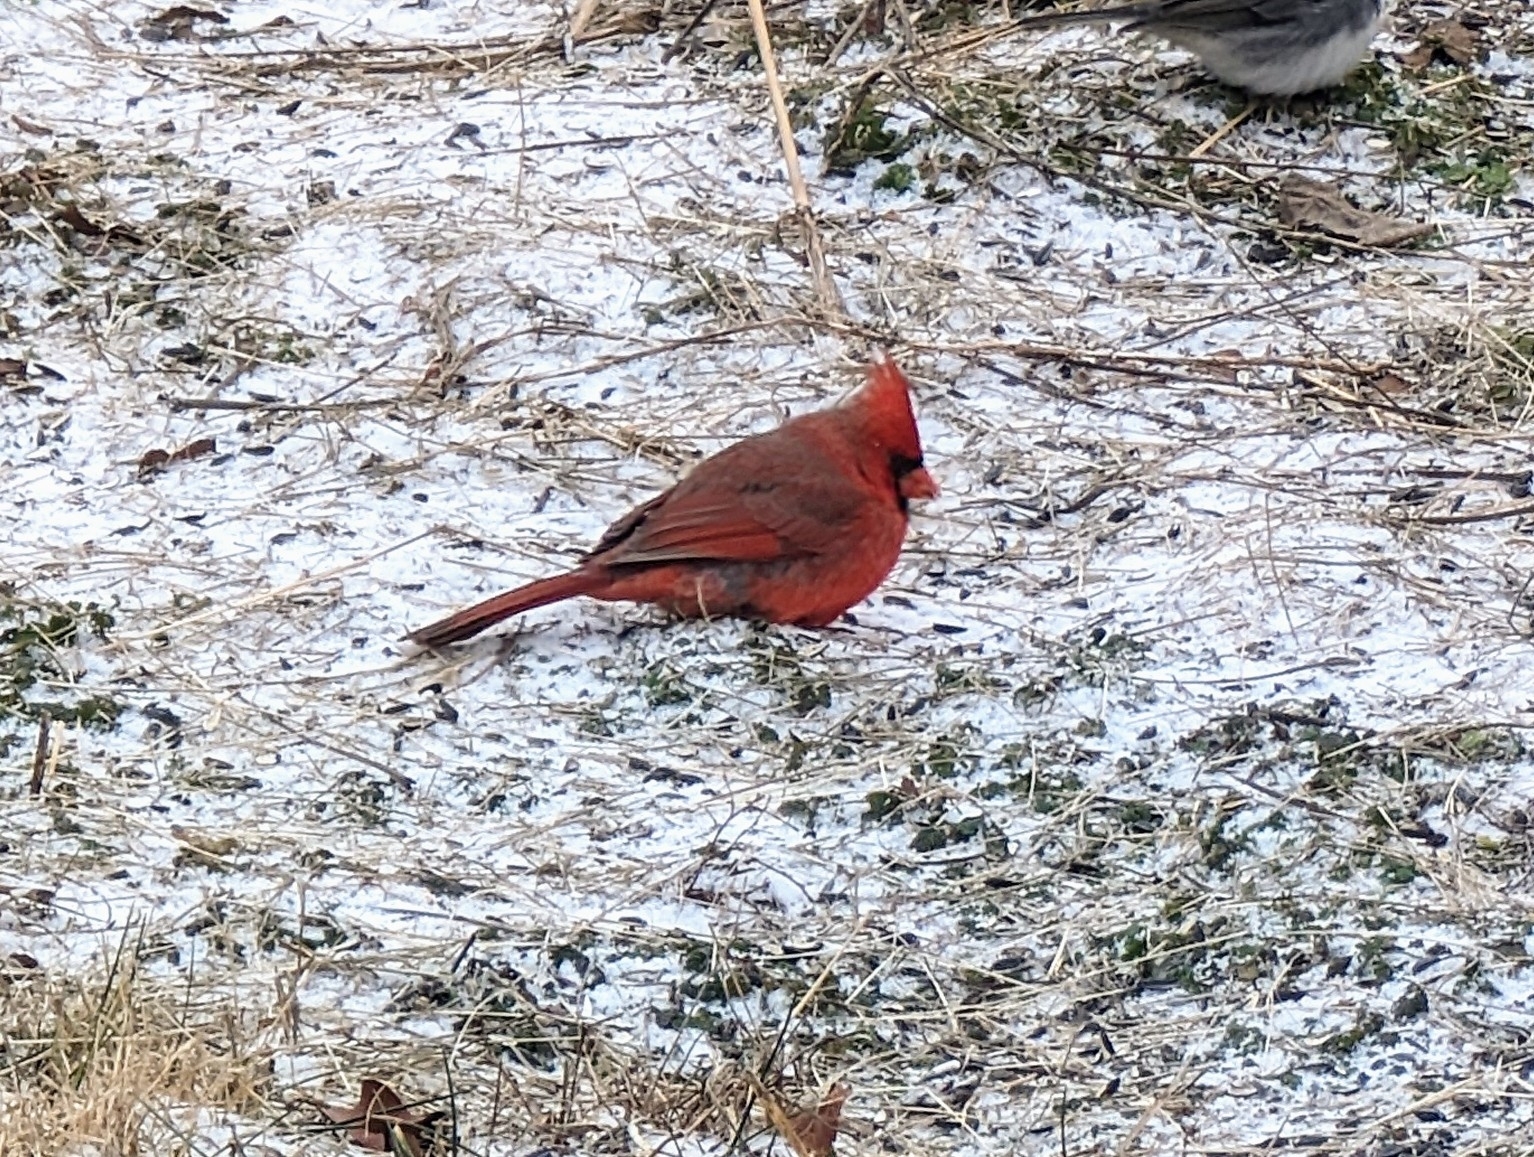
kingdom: Animalia
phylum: Chordata
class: Aves
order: Passeriformes
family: Cardinalidae
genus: Cardinalis
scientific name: Cardinalis cardinalis
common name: Northern cardinal
